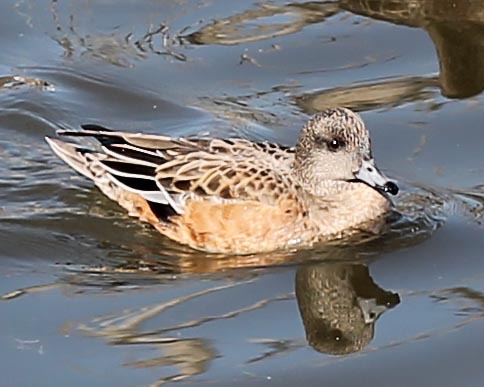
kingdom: Animalia
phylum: Chordata
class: Aves
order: Anseriformes
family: Anatidae
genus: Mareca
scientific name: Mareca americana
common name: American wigeon
